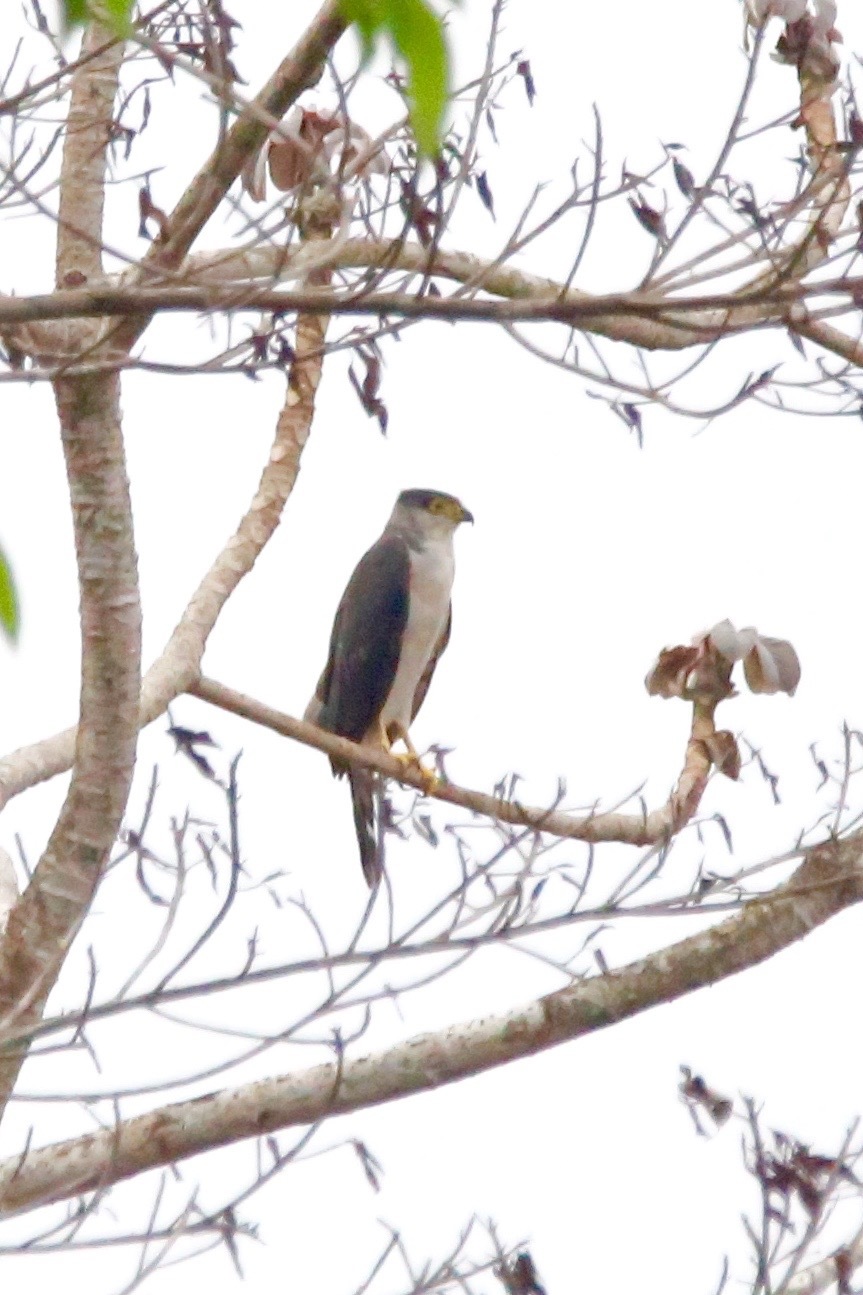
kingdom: Animalia
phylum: Chordata
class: Aves
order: Accipitriformes
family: Accipitridae
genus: Accipiter
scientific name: Accipiter poliogaster
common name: Grey-bellied hawk
